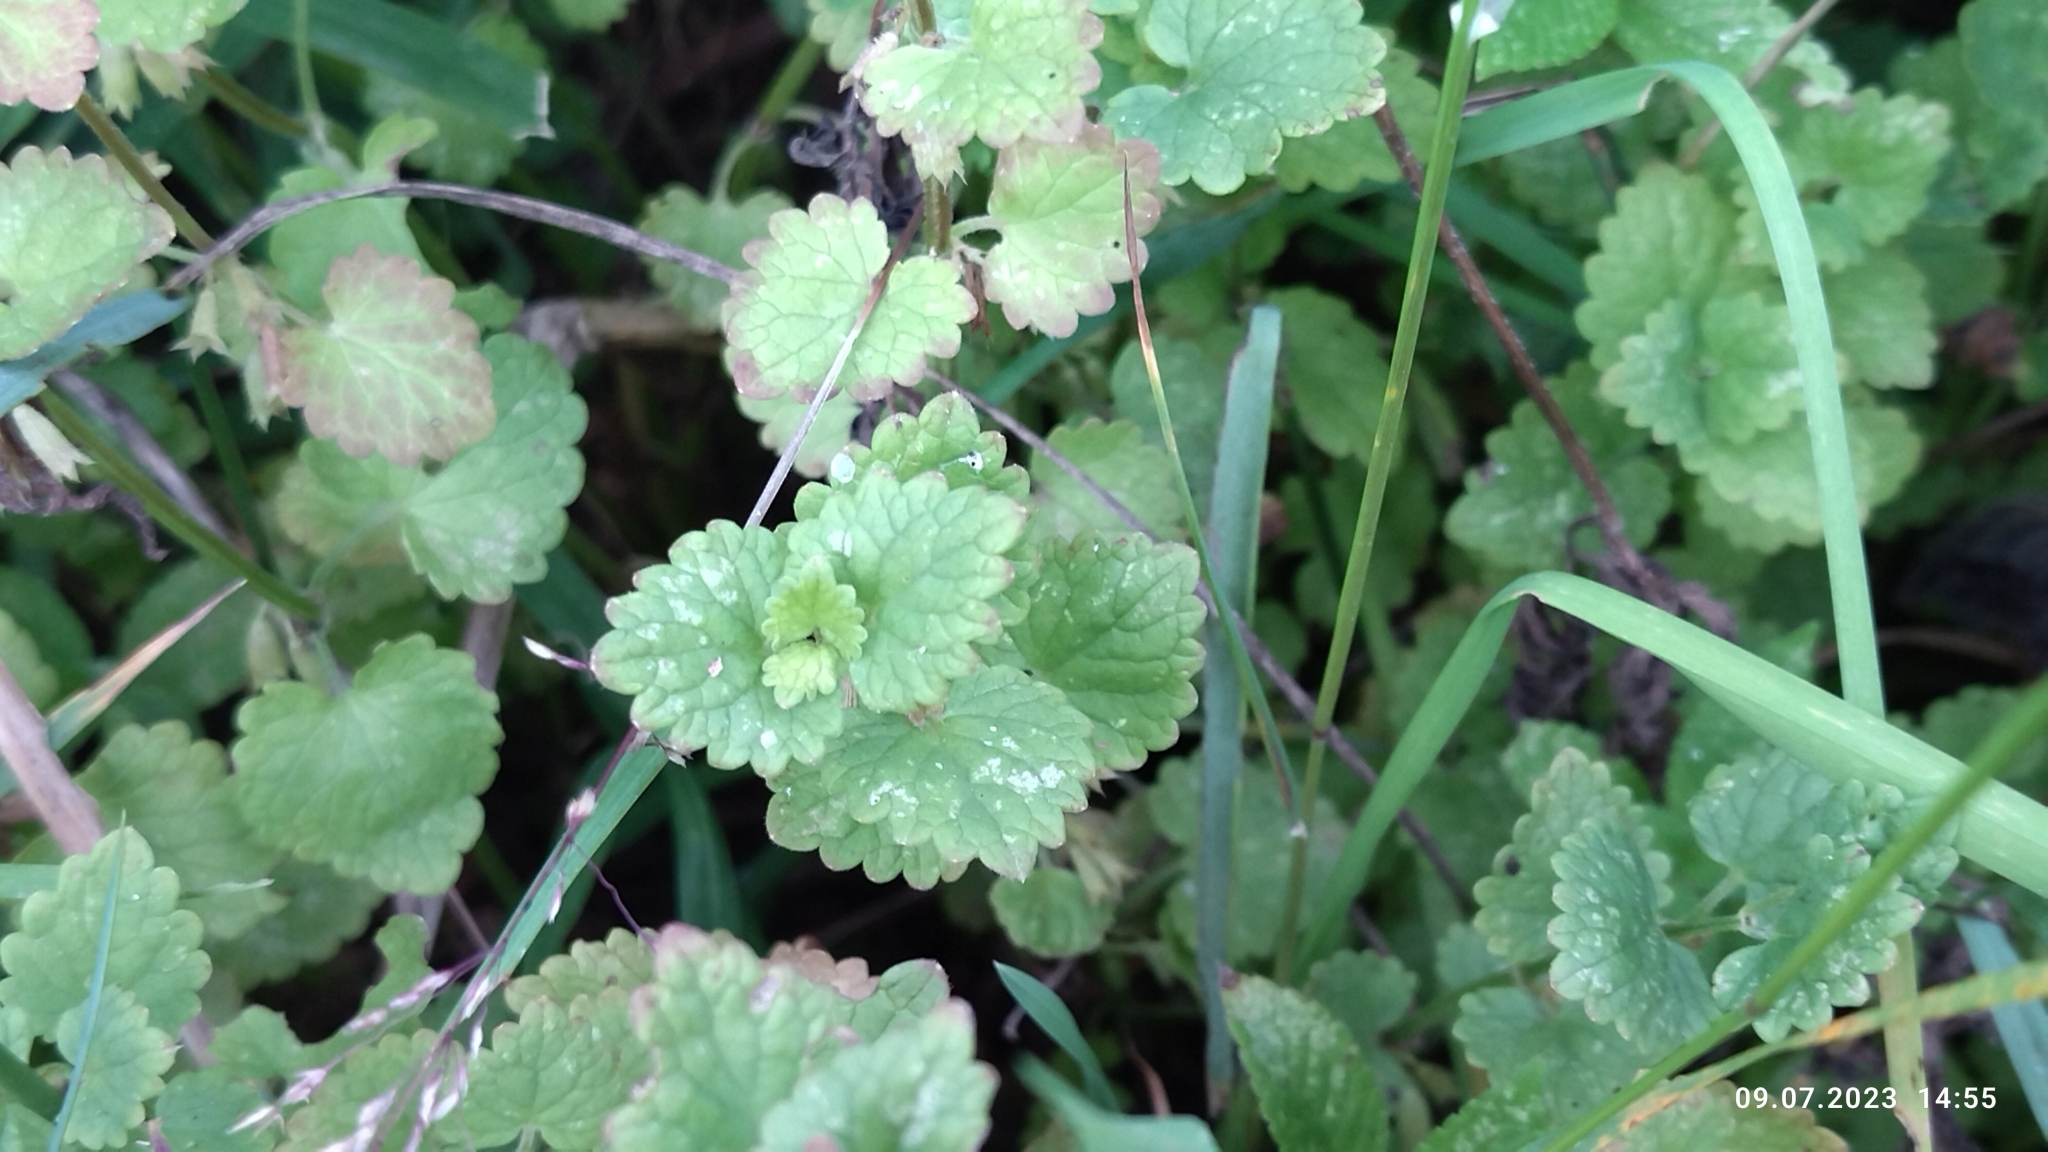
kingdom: Plantae
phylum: Tracheophyta
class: Magnoliopsida
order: Lamiales
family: Lamiaceae
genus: Glechoma
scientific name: Glechoma hederacea
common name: Ground ivy
